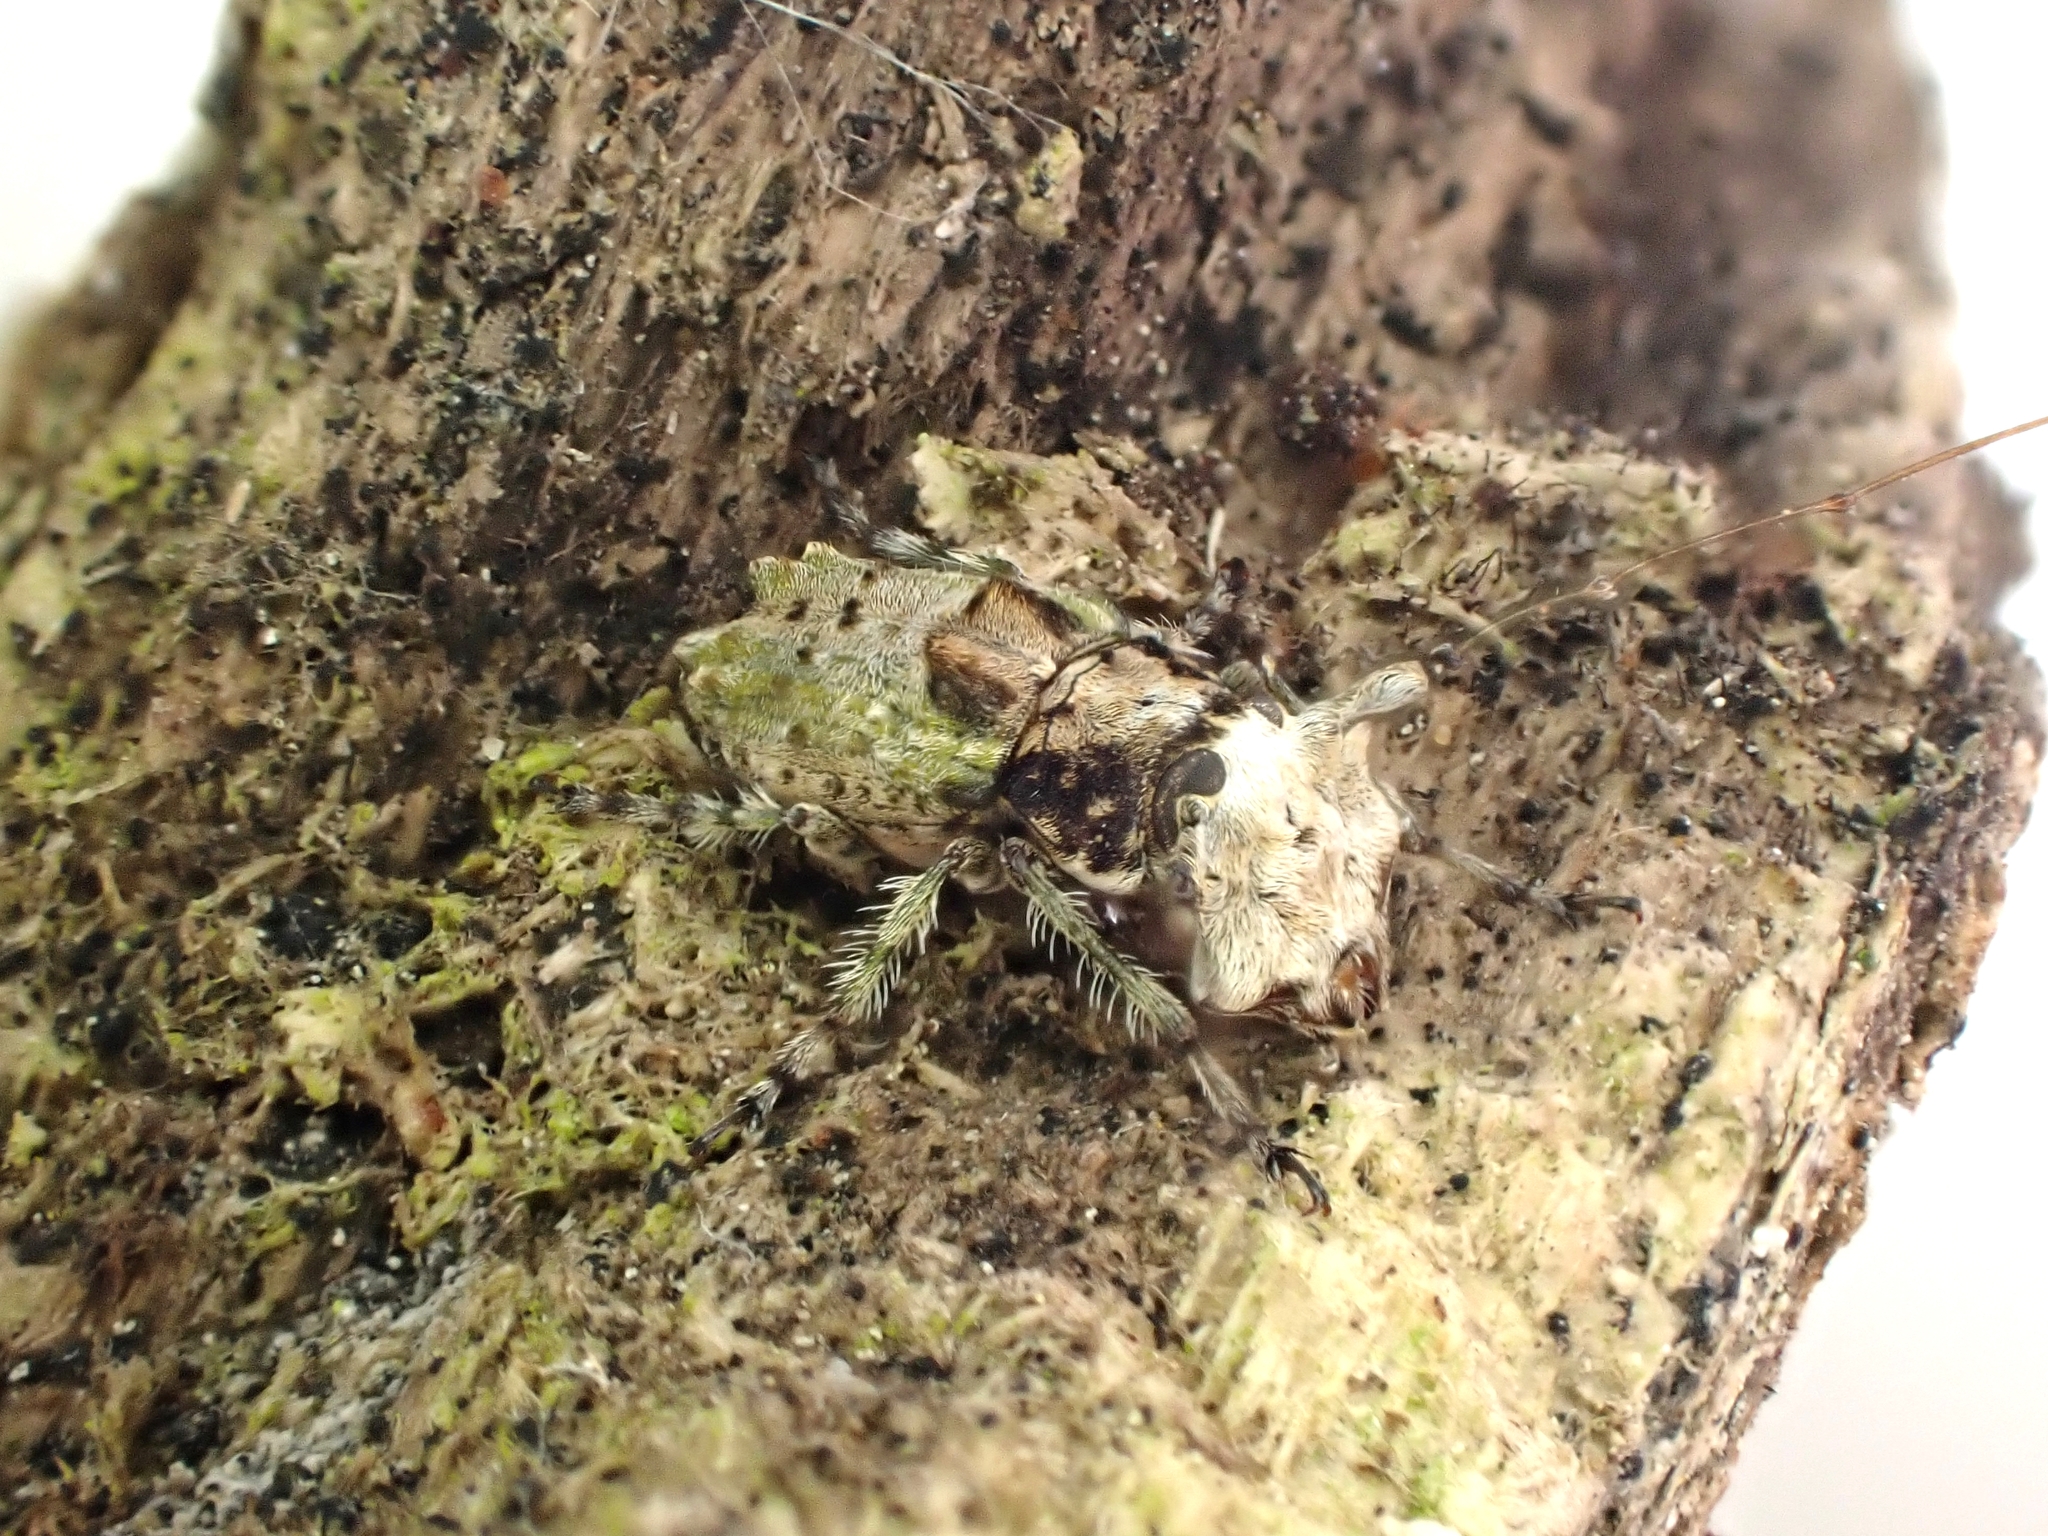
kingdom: Animalia
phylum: Arthropoda
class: Insecta
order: Coleoptera
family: Anthribidae
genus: Hoherius
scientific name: Hoherius
